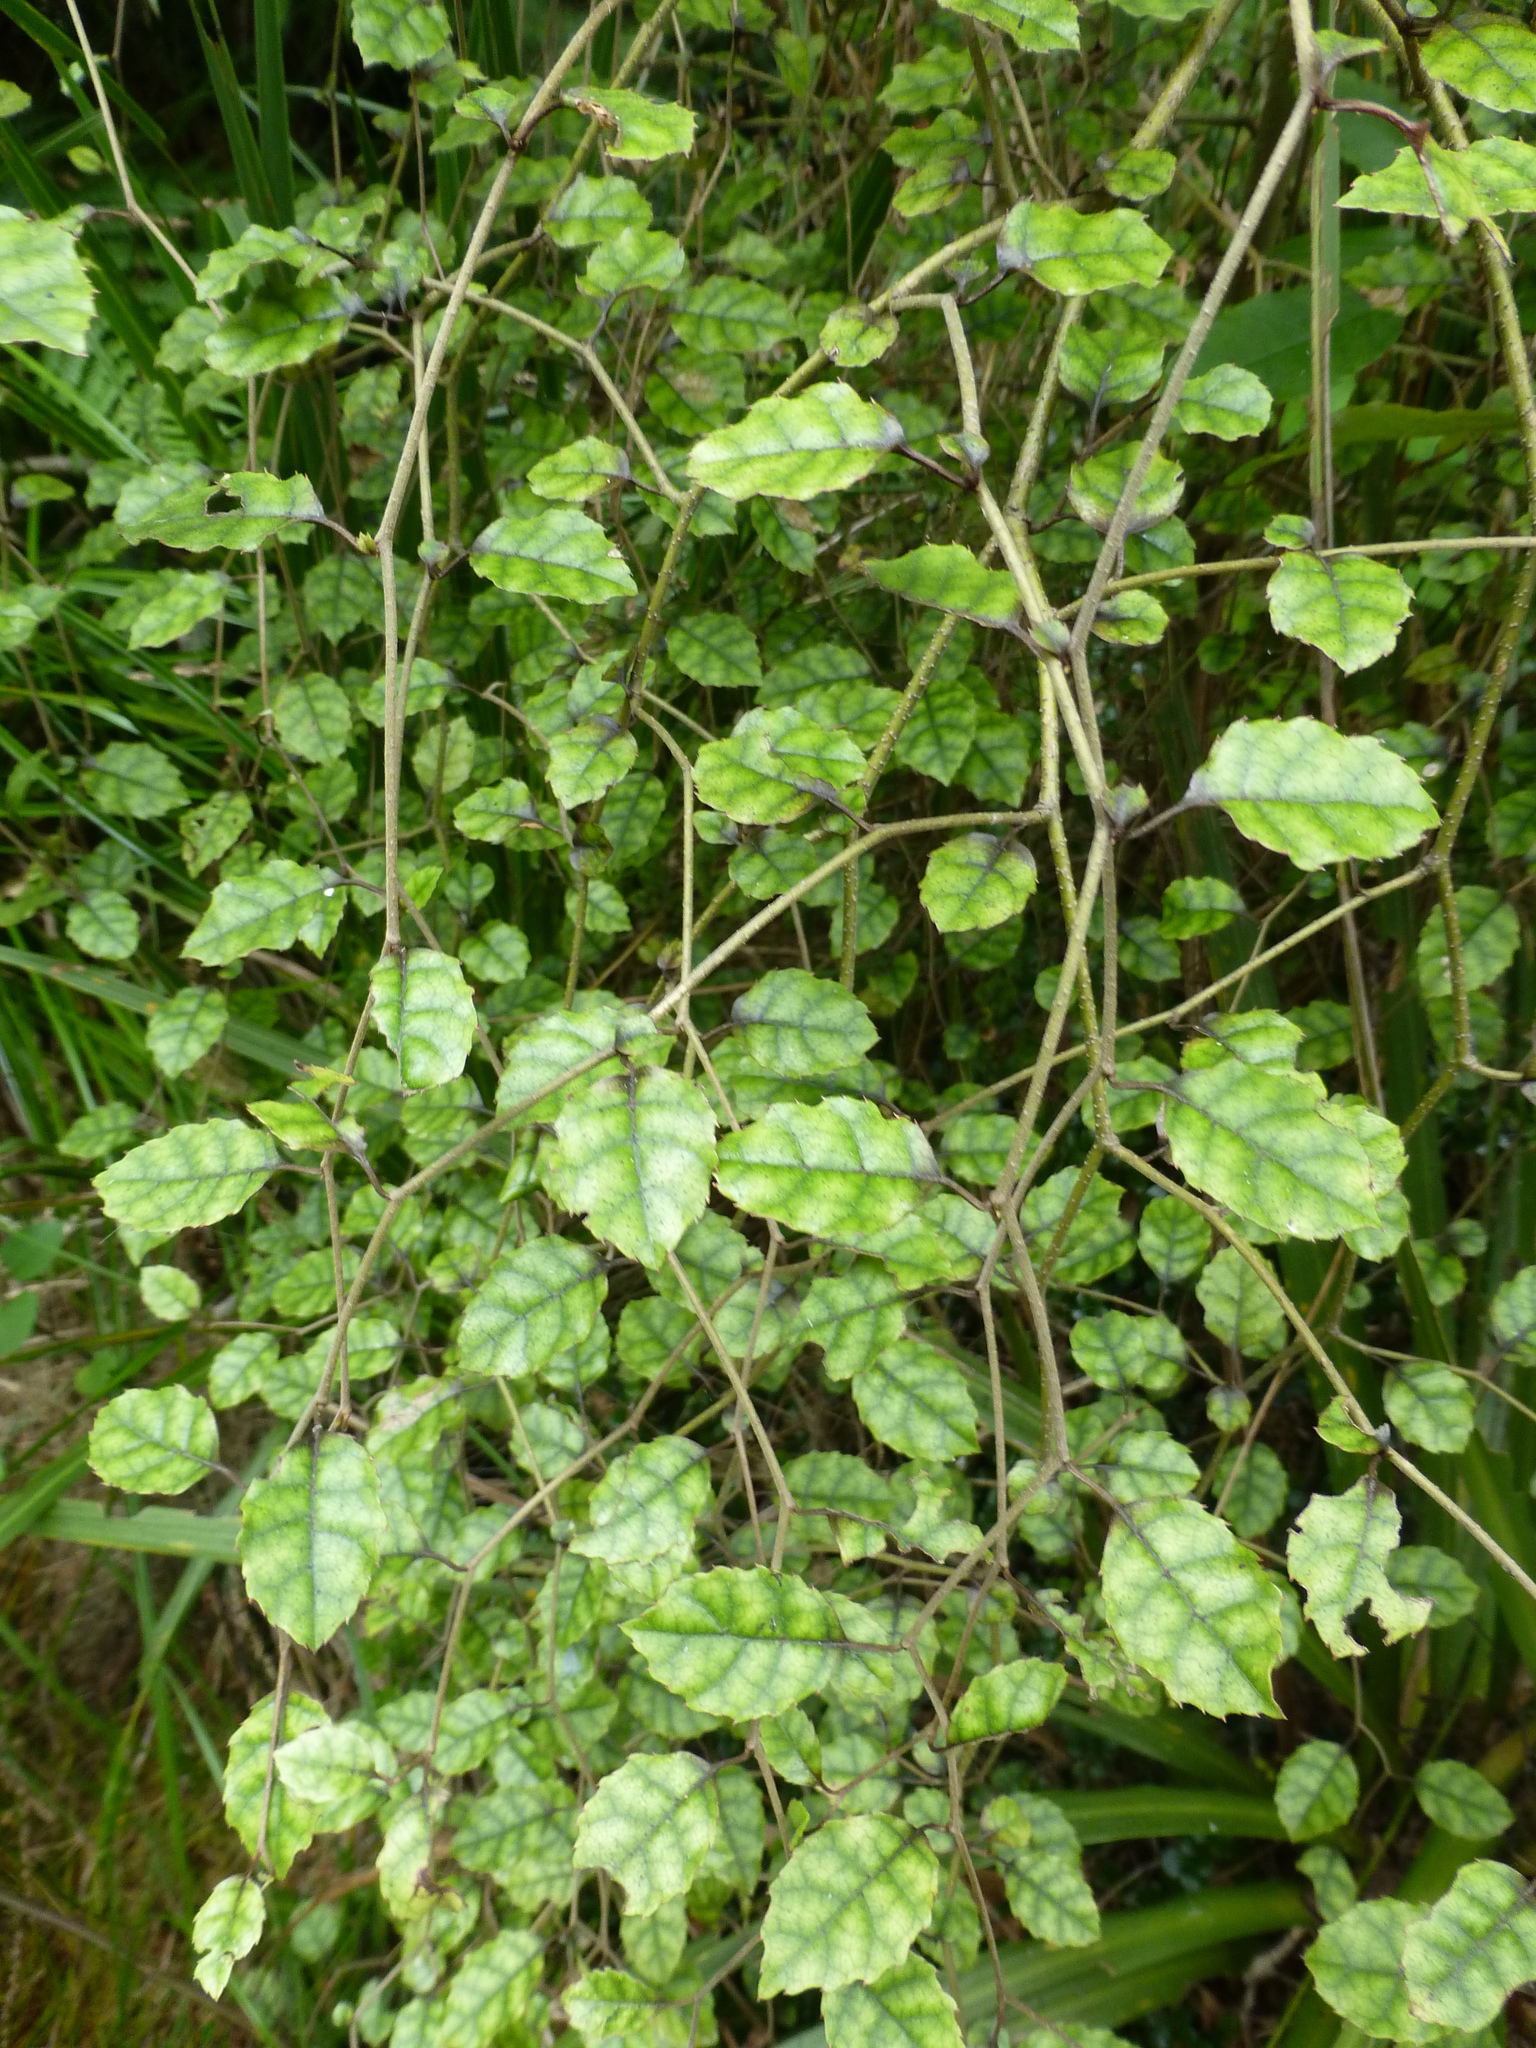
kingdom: Plantae
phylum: Tracheophyta
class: Magnoliopsida
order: Asterales
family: Rousseaceae
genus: Carpodetus
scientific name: Carpodetus serratus
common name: White mapau
